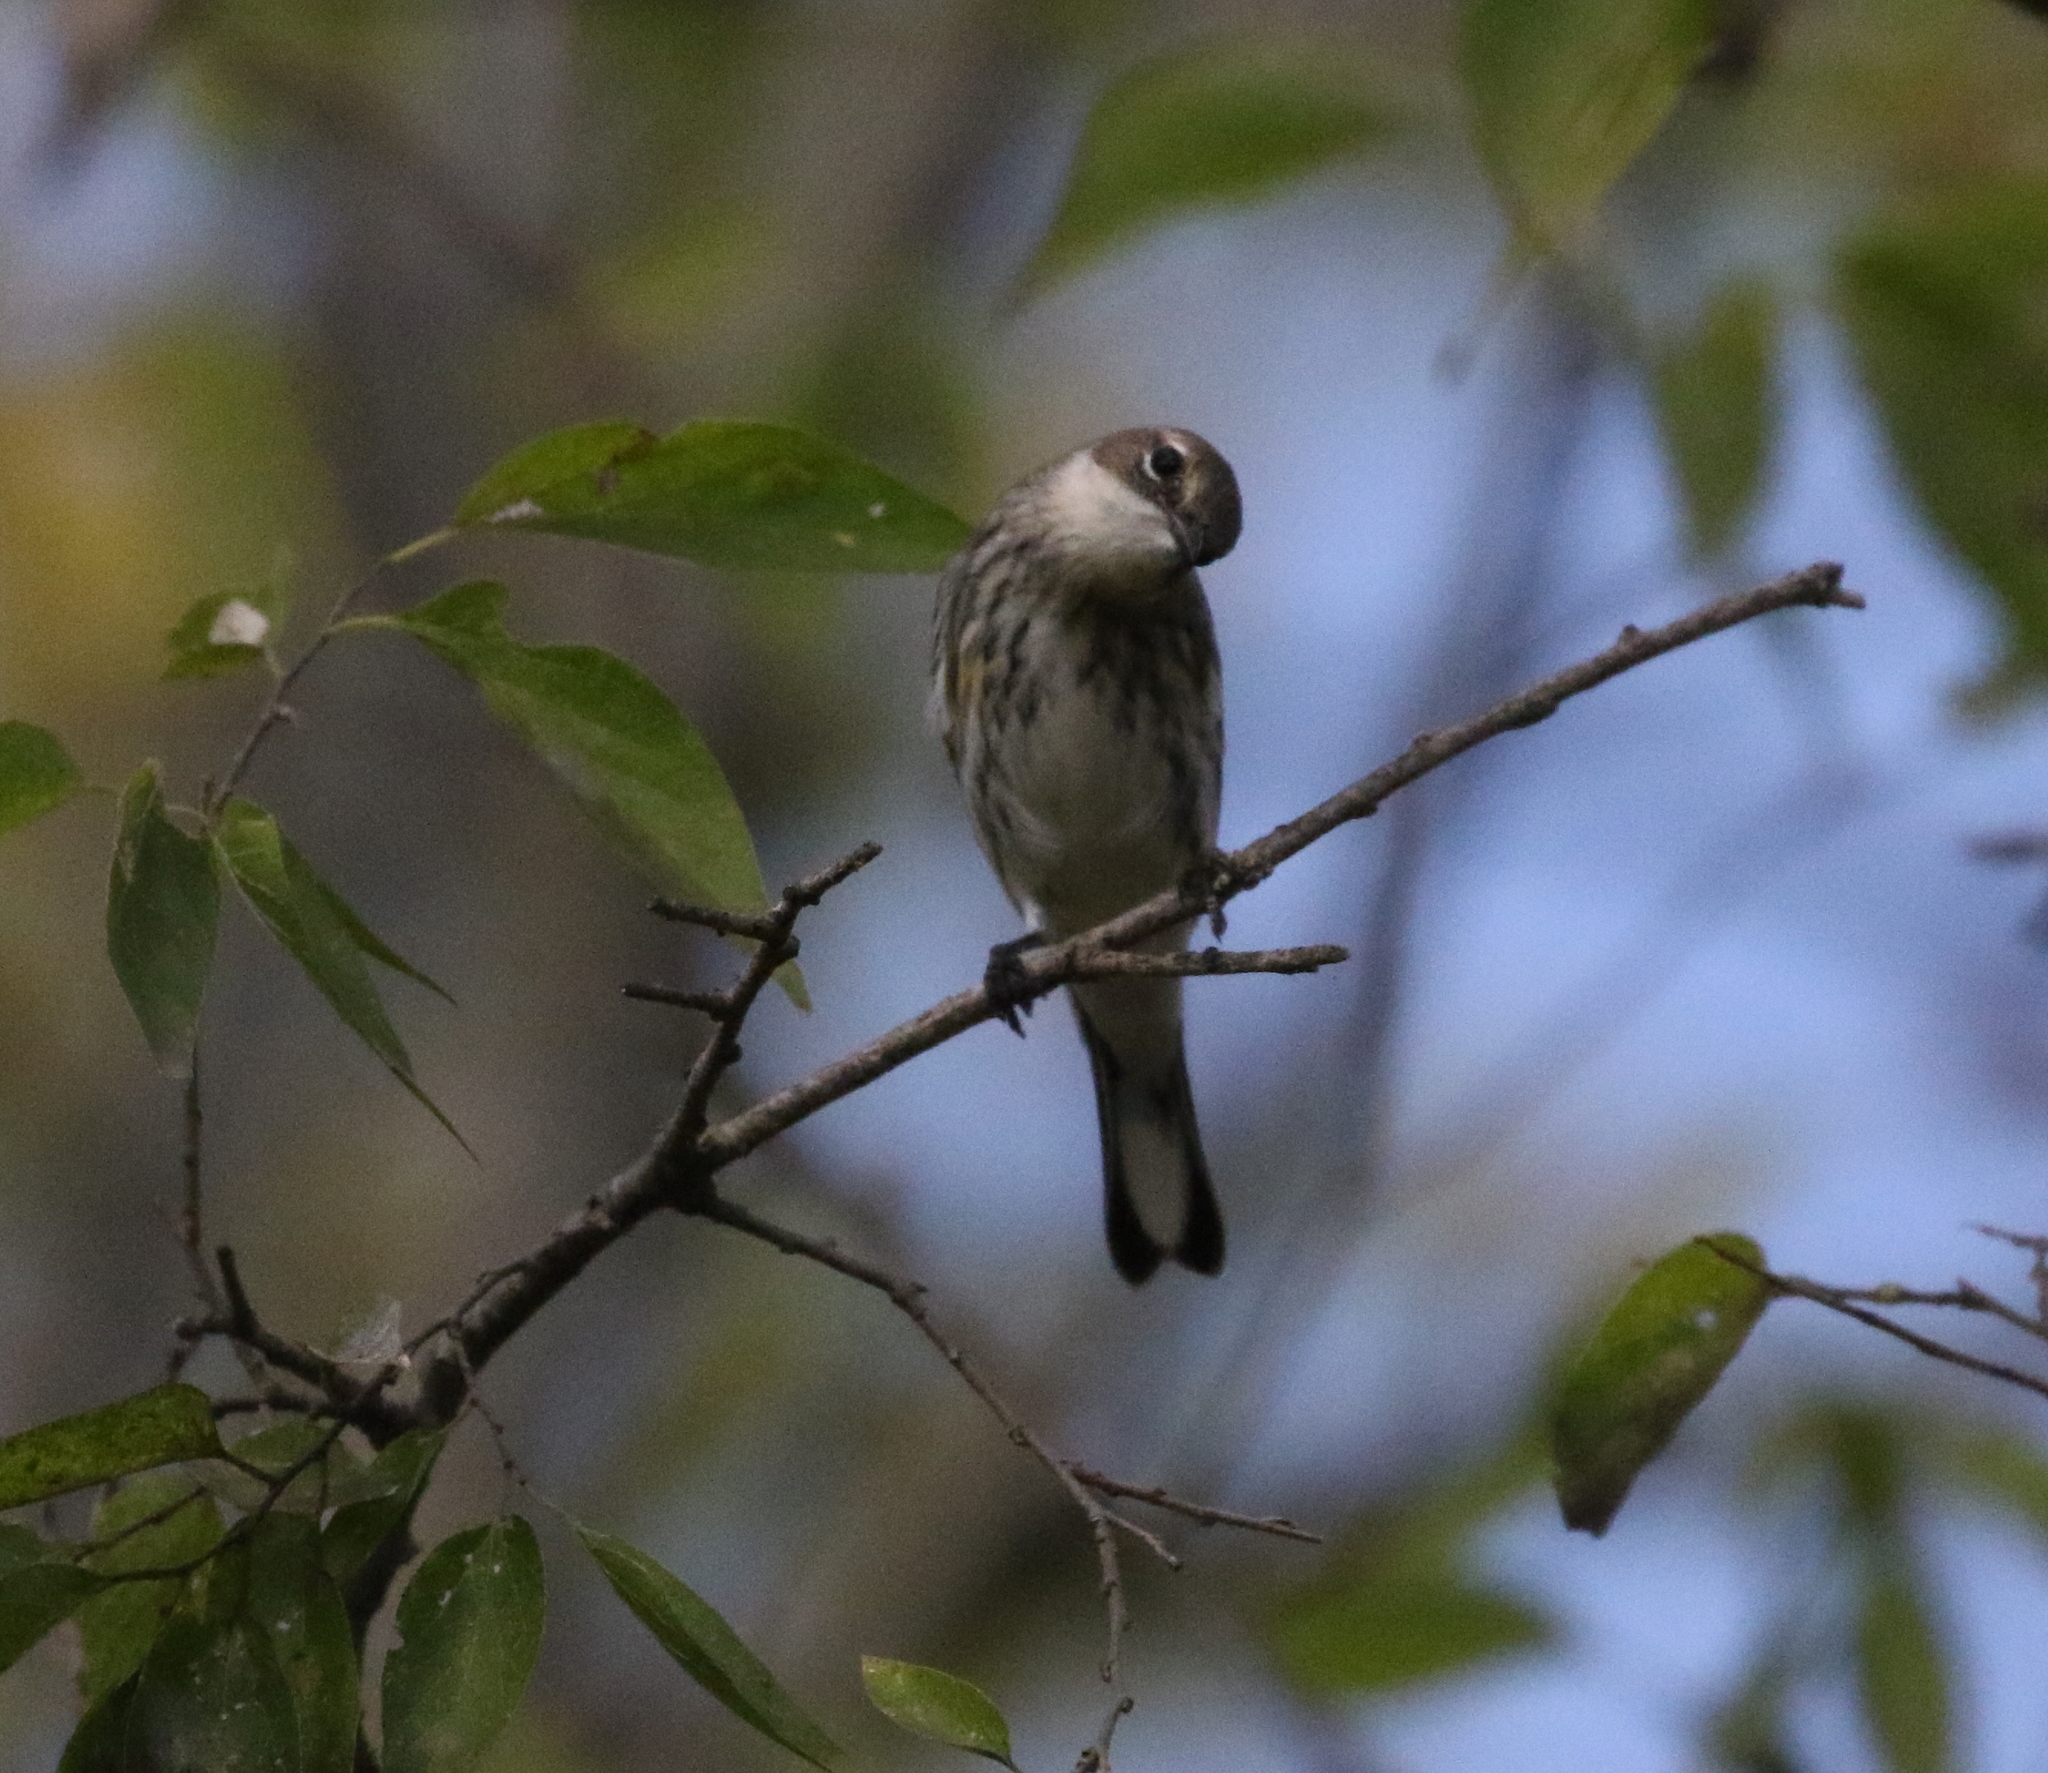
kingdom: Animalia
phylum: Chordata
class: Aves
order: Passeriformes
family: Parulidae
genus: Setophaga
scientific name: Setophaga coronata
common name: Myrtle warbler
